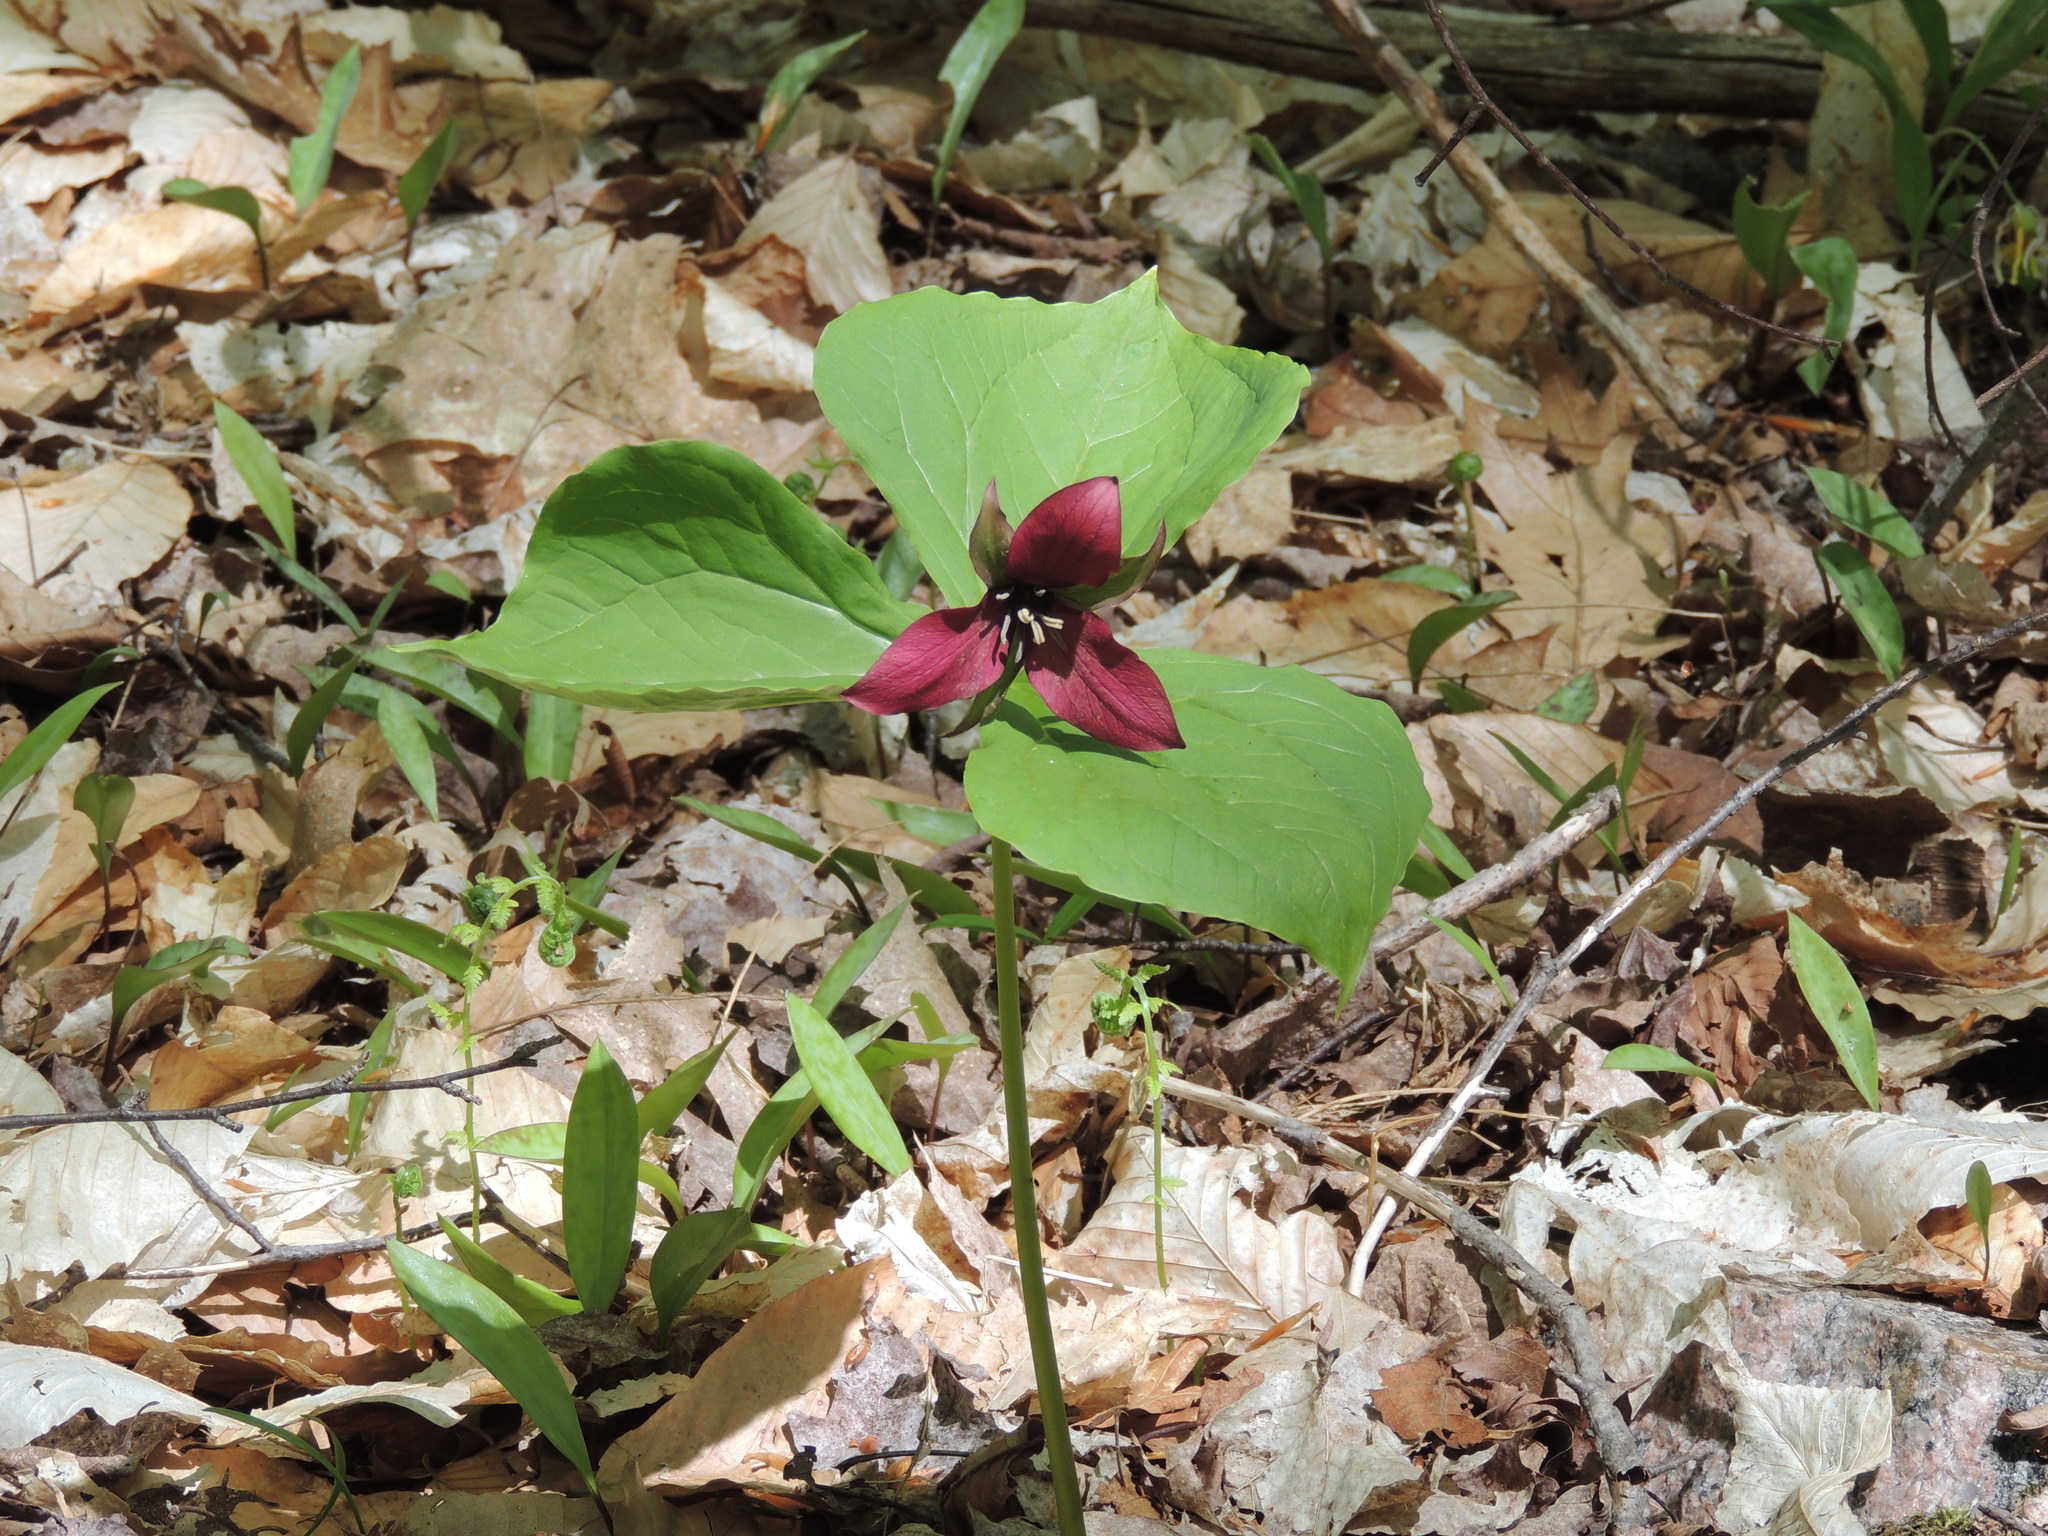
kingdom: Plantae
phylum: Tracheophyta
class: Liliopsida
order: Liliales
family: Melanthiaceae
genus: Trillium
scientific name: Trillium erectum
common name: Purple trillium
